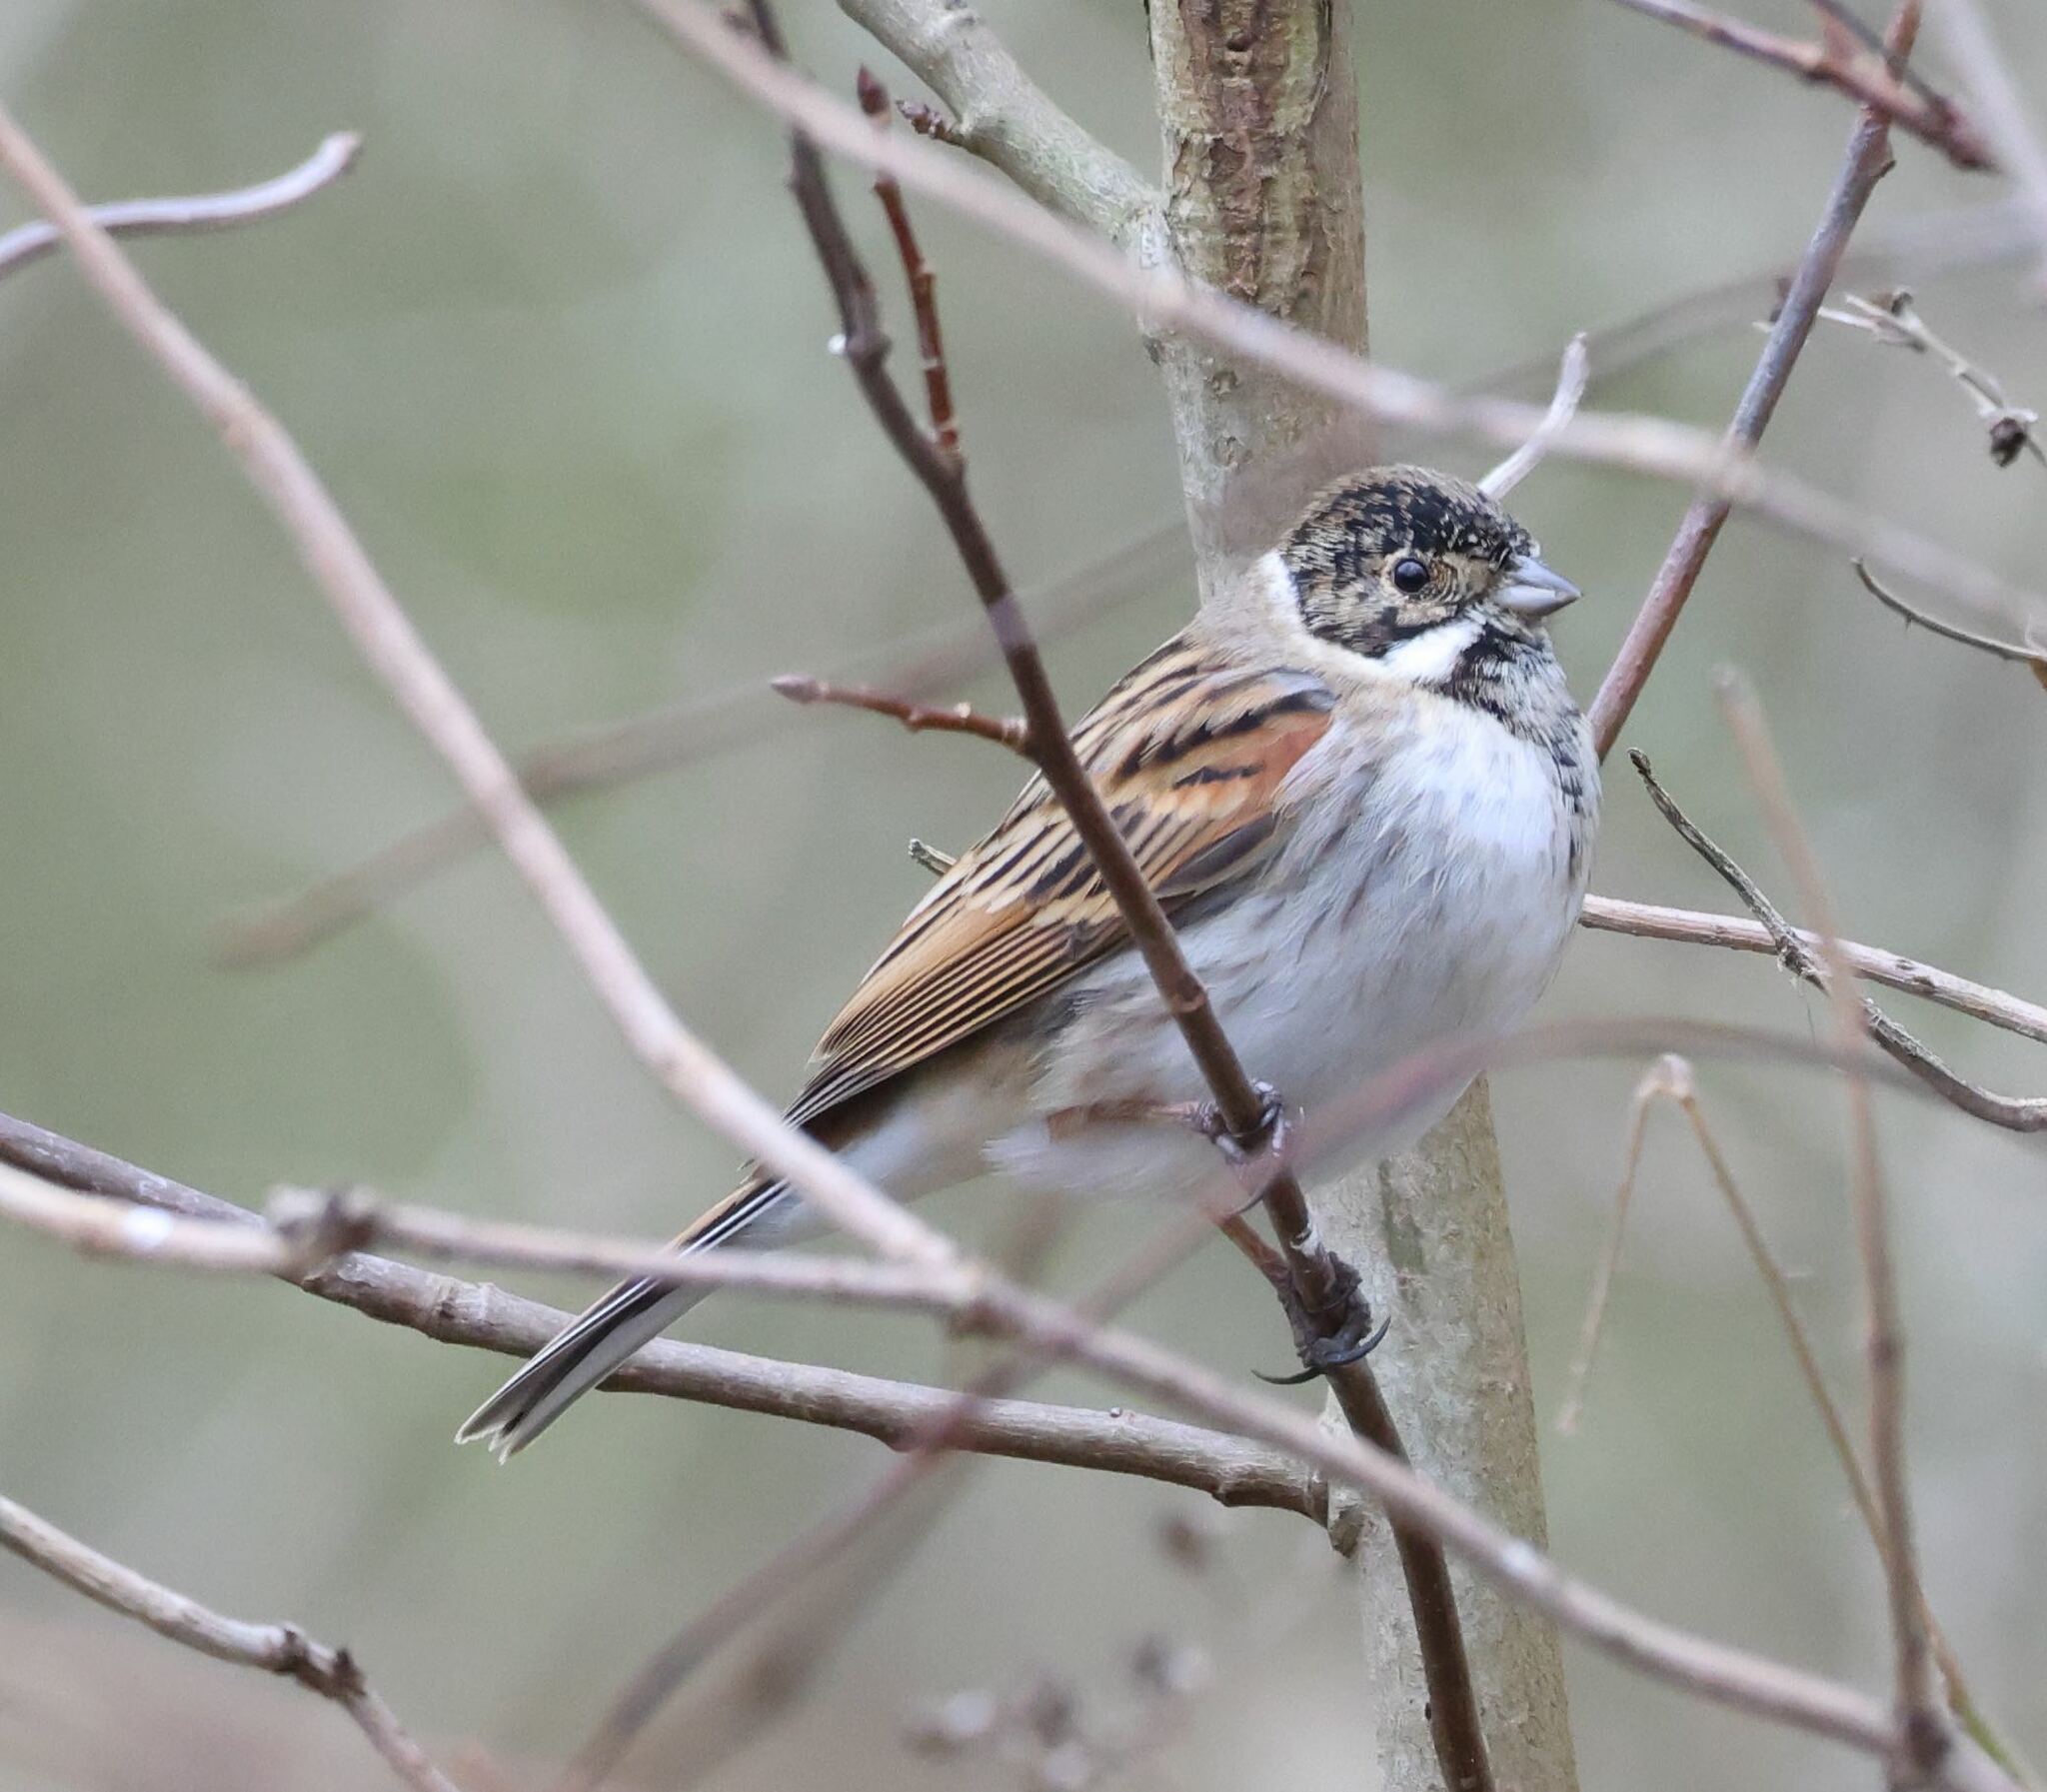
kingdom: Animalia
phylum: Chordata
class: Aves
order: Passeriformes
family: Emberizidae
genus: Emberiza
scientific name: Emberiza schoeniclus
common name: Reed bunting
